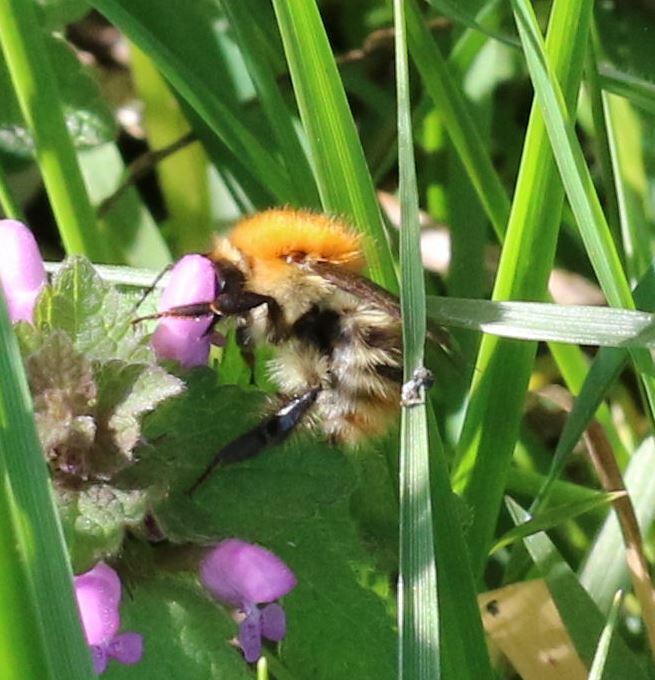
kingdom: Animalia
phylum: Arthropoda
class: Insecta
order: Hymenoptera
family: Apidae
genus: Bombus
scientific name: Bombus pascuorum
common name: Common carder bee
